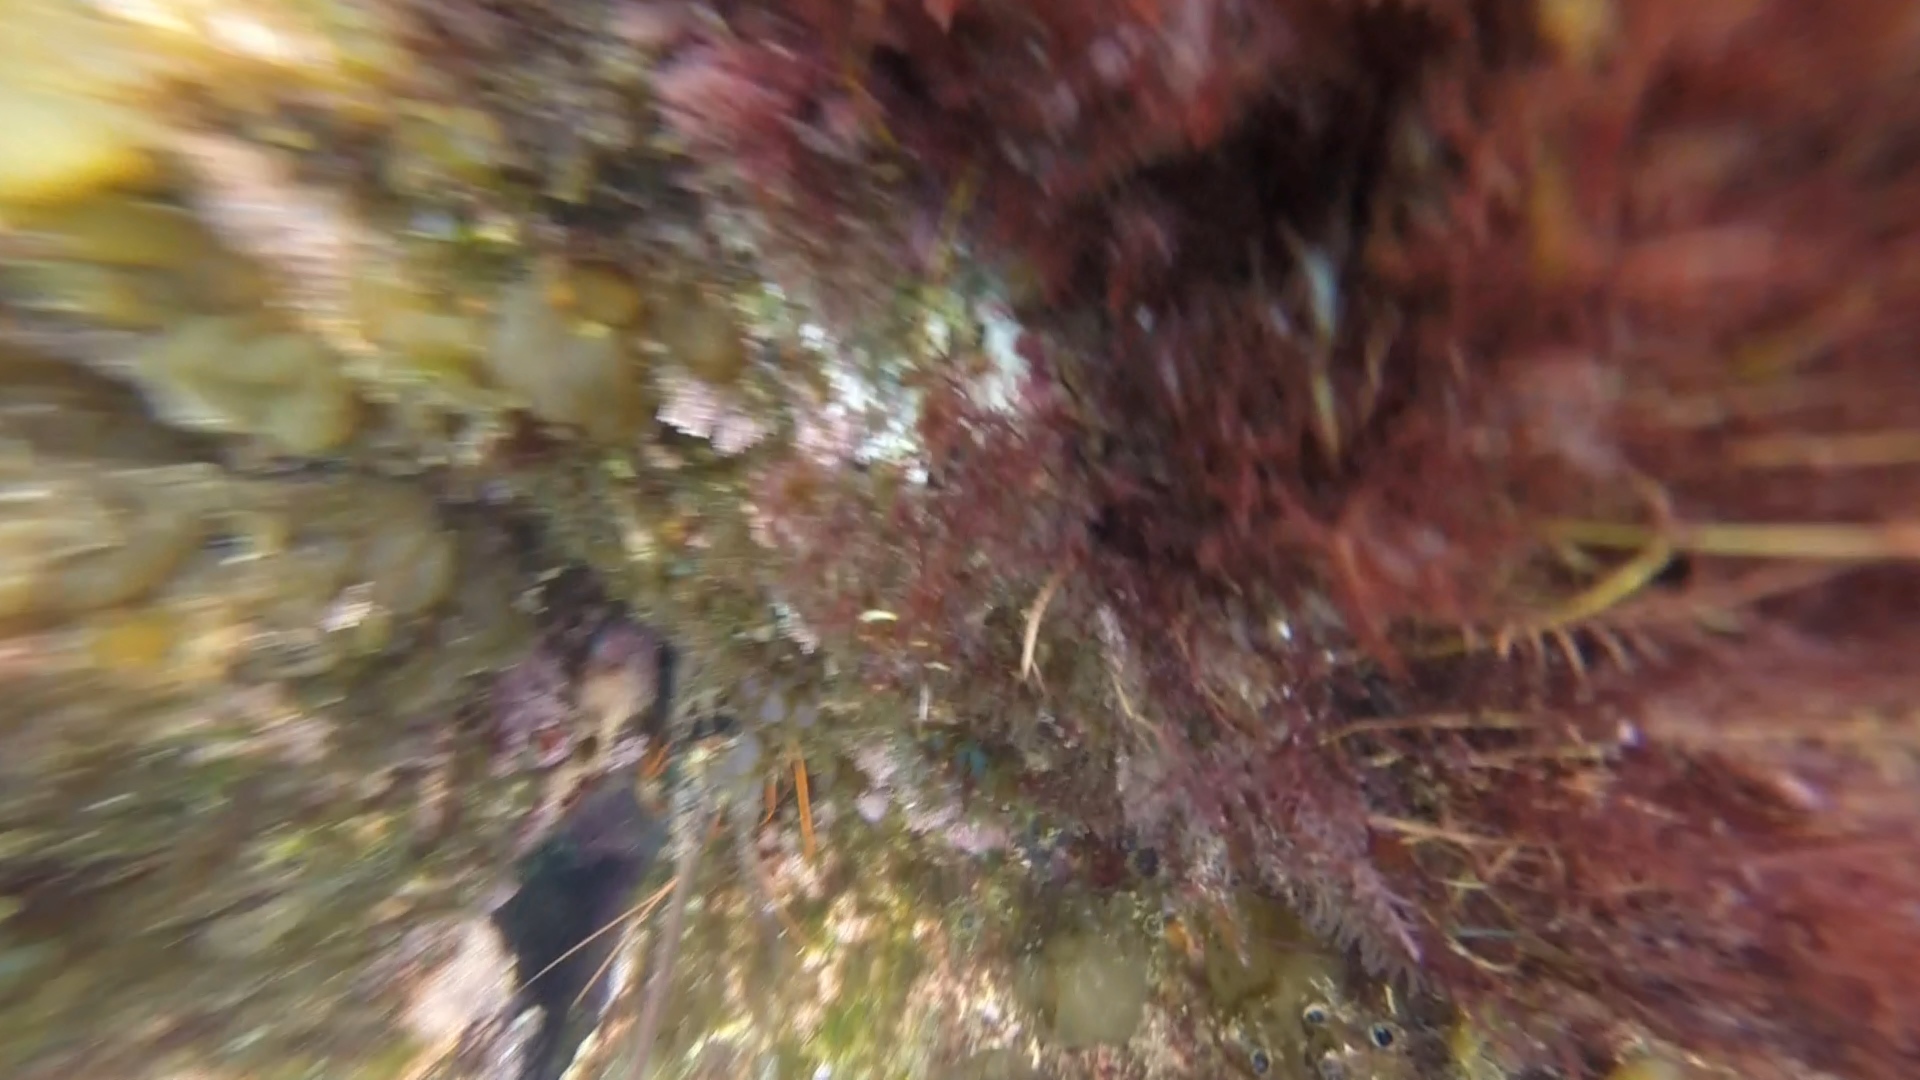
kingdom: Animalia
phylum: Arthropoda
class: Malacostraca
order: Decapoda
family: Palinuridae
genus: Panulirus
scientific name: Panulirus interruptus
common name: California spiny lobster
